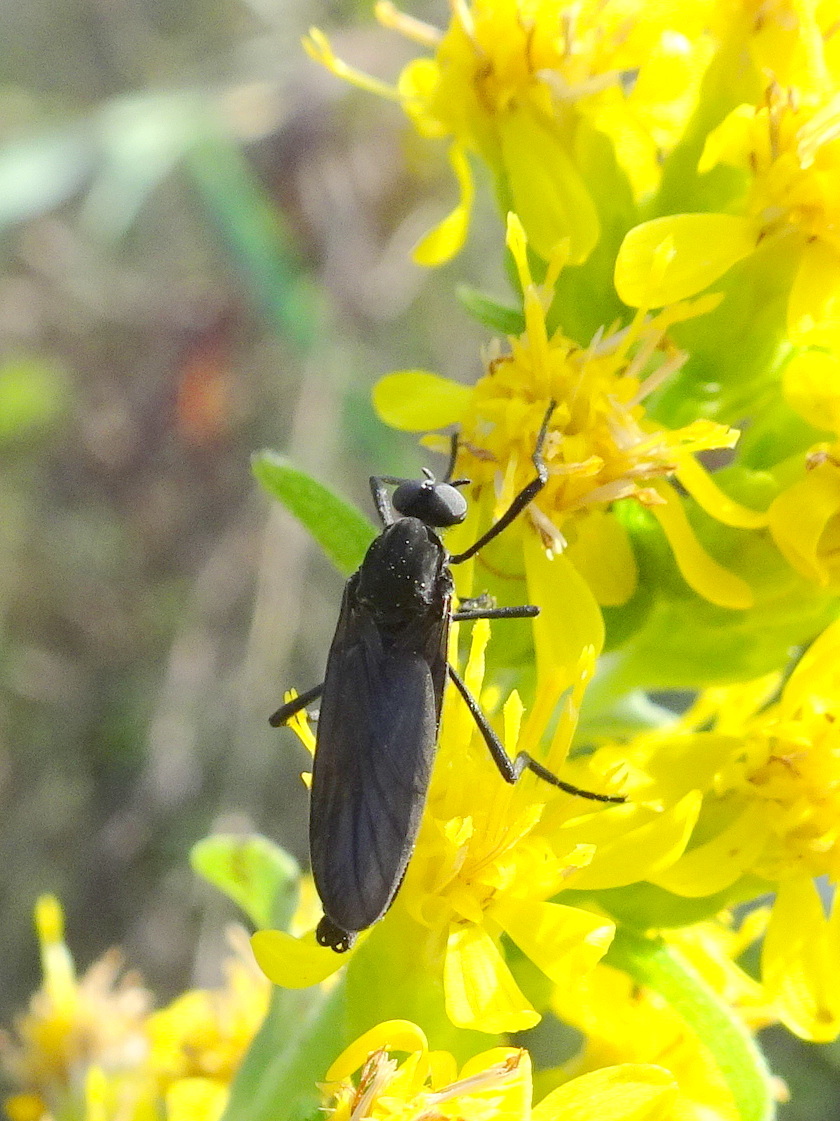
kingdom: Animalia
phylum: Arthropoda
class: Insecta
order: Diptera
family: Bibionidae
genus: Penthetria
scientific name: Penthetria heteroptera
